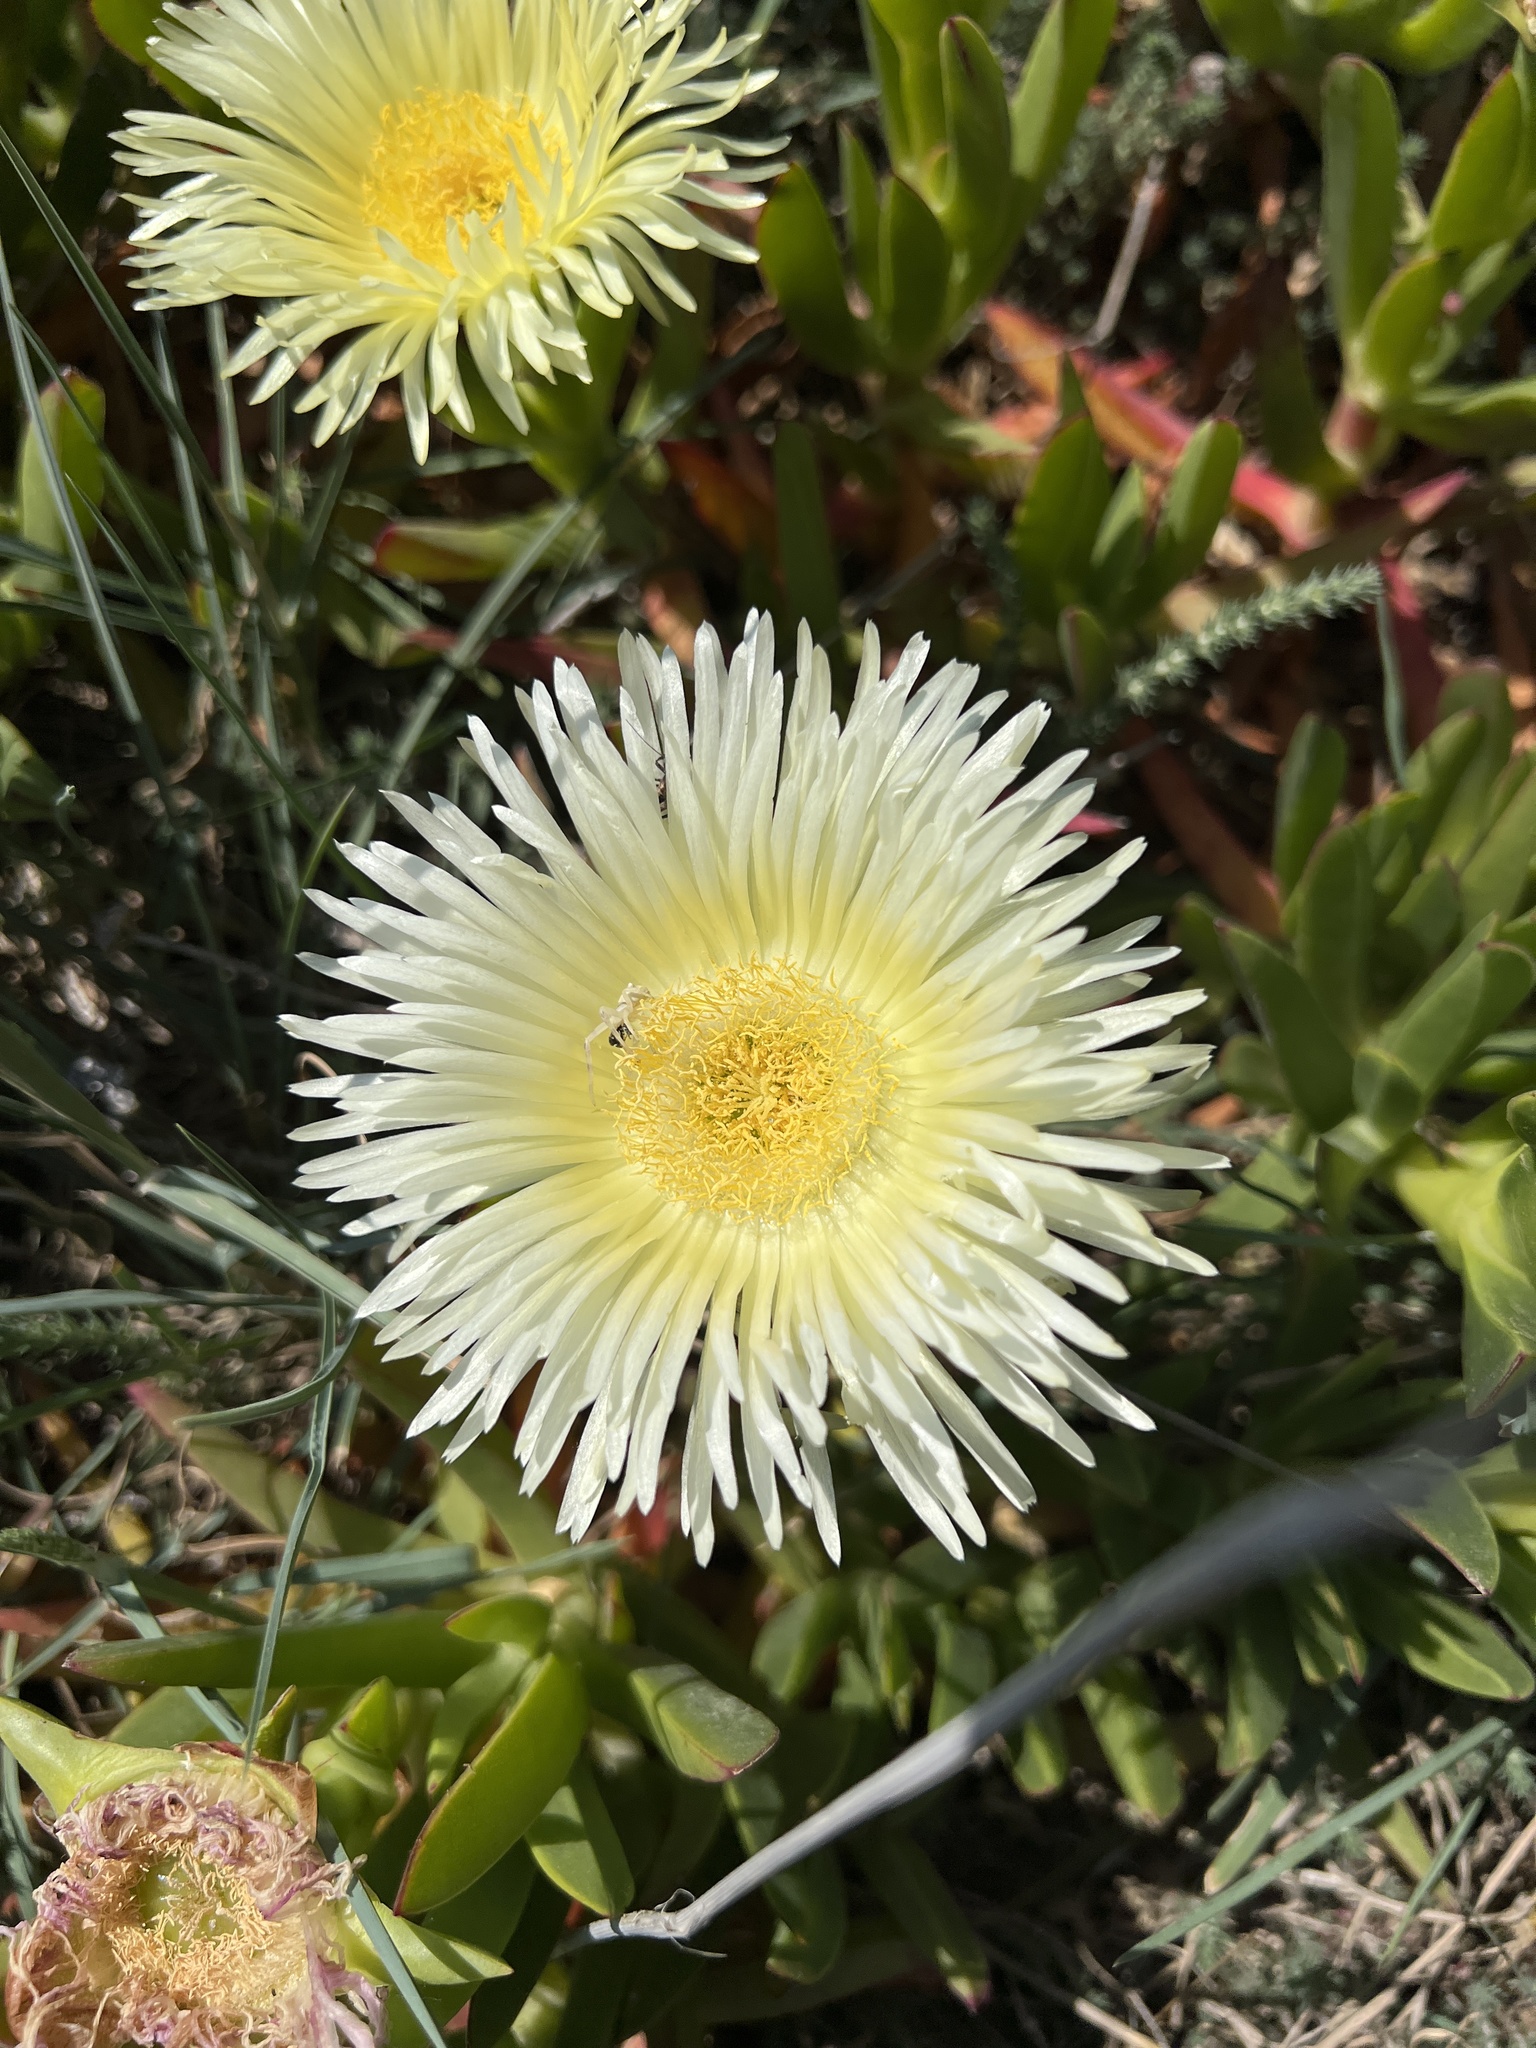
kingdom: Plantae
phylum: Tracheophyta
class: Magnoliopsida
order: Caryophyllales
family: Aizoaceae
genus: Carpobrotus
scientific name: Carpobrotus edulis
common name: Hottentot-fig
